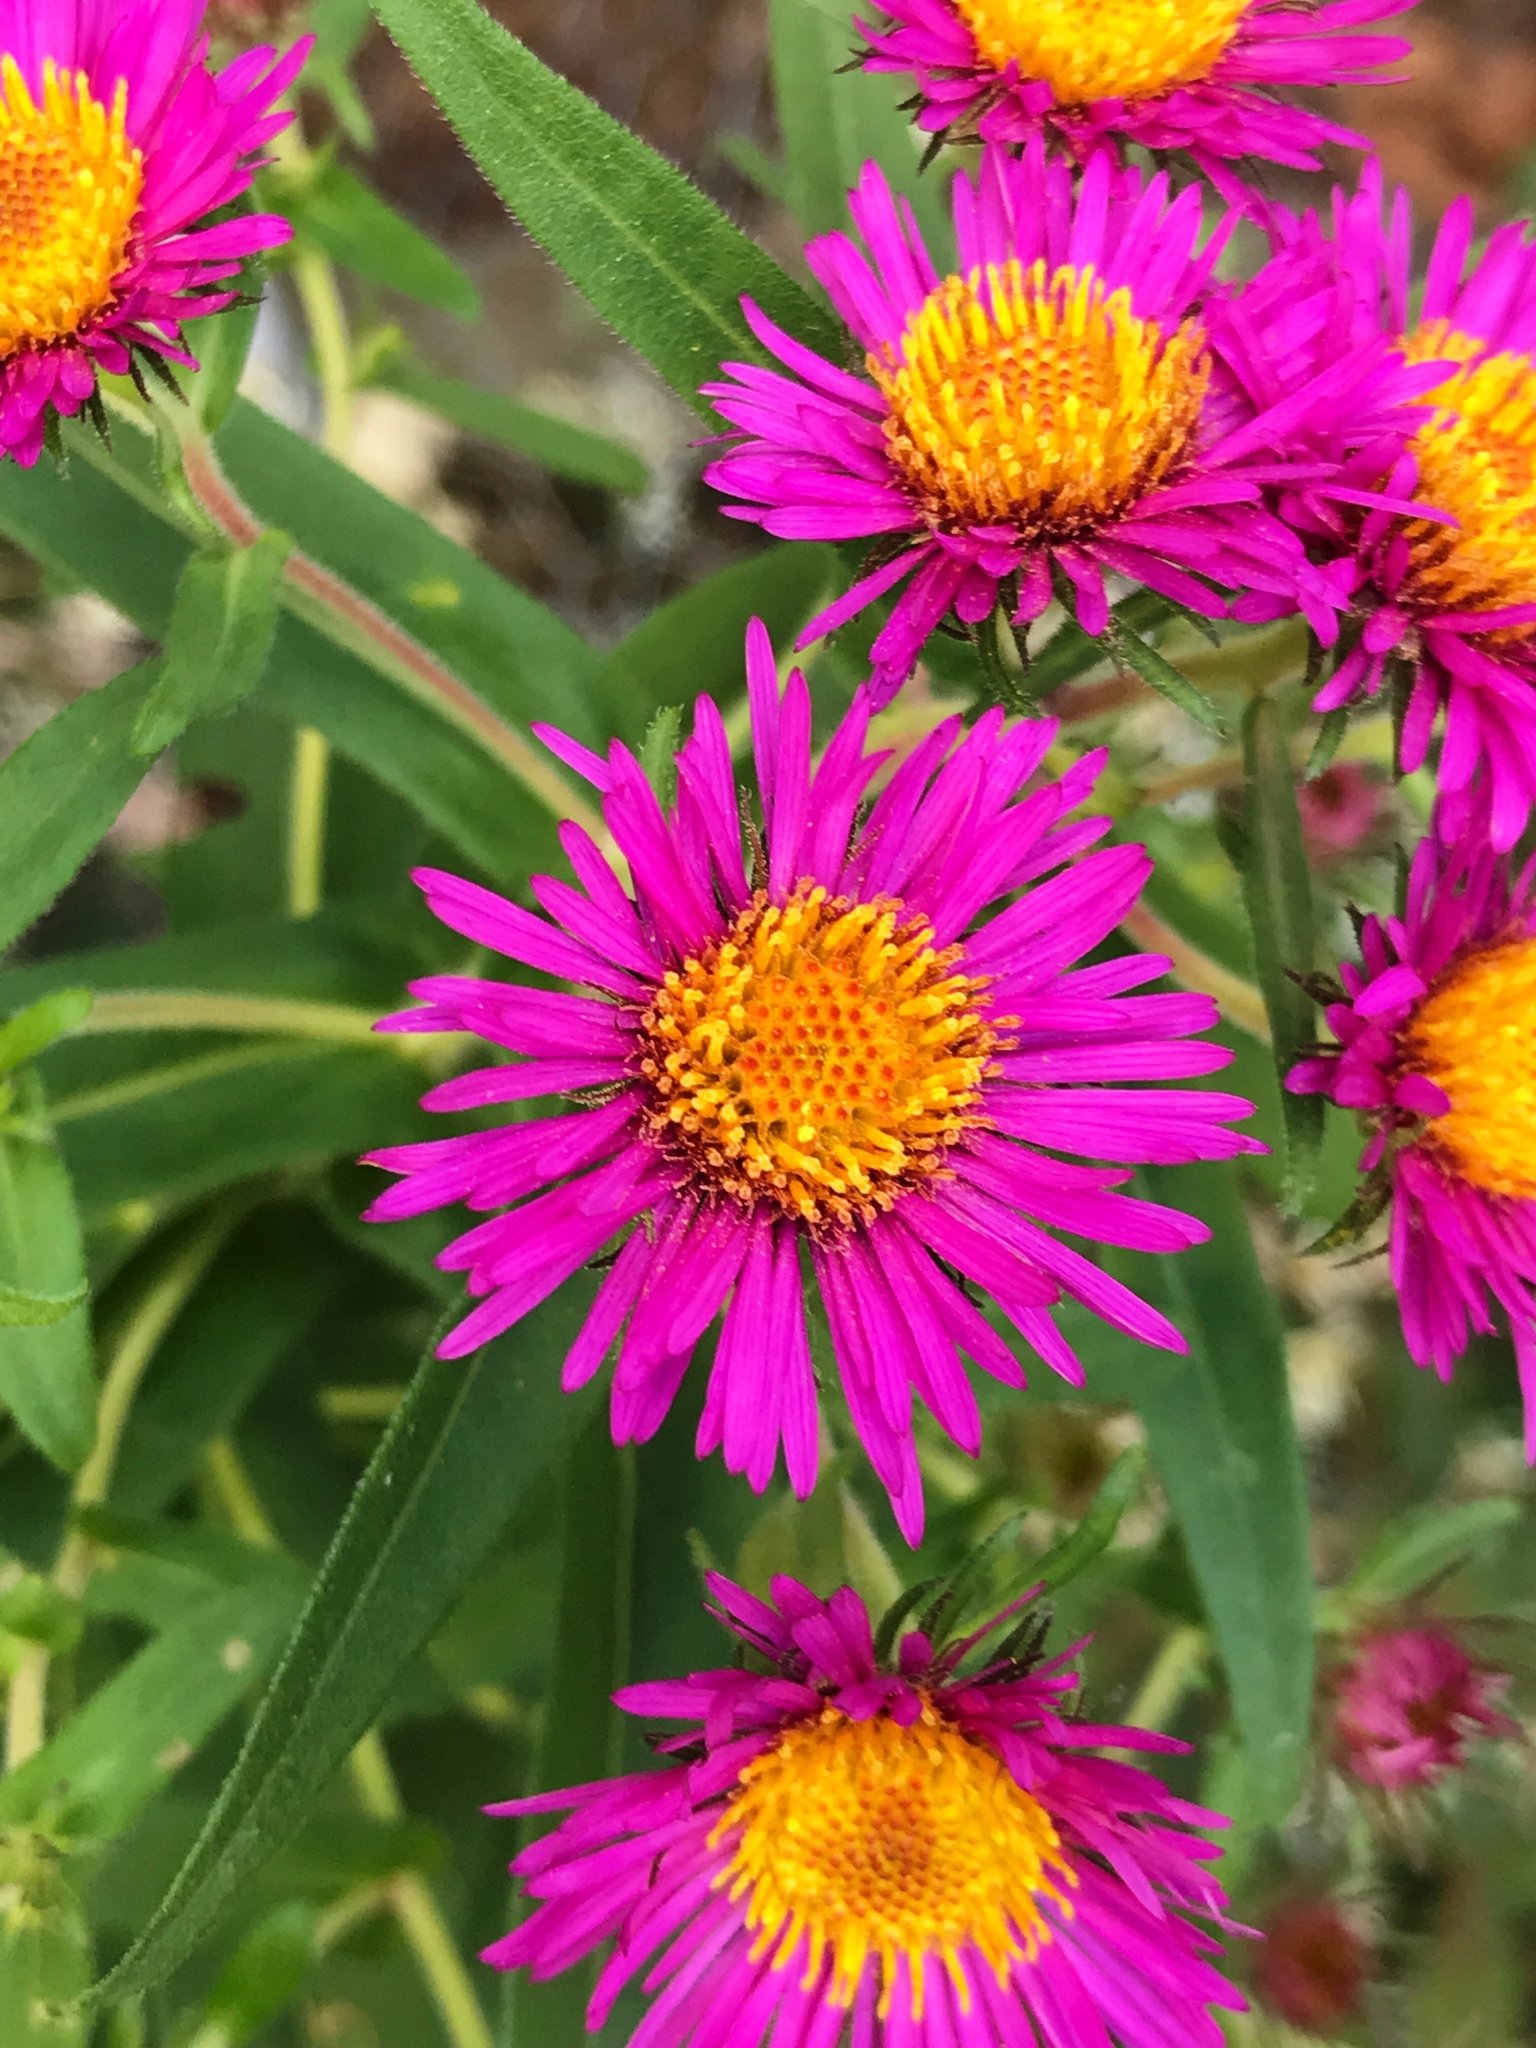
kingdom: Plantae
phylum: Tracheophyta
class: Magnoliopsida
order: Asterales
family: Asteraceae
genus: Symphyotrichum
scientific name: Symphyotrichum novae-angliae
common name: Michaelmas daisy
